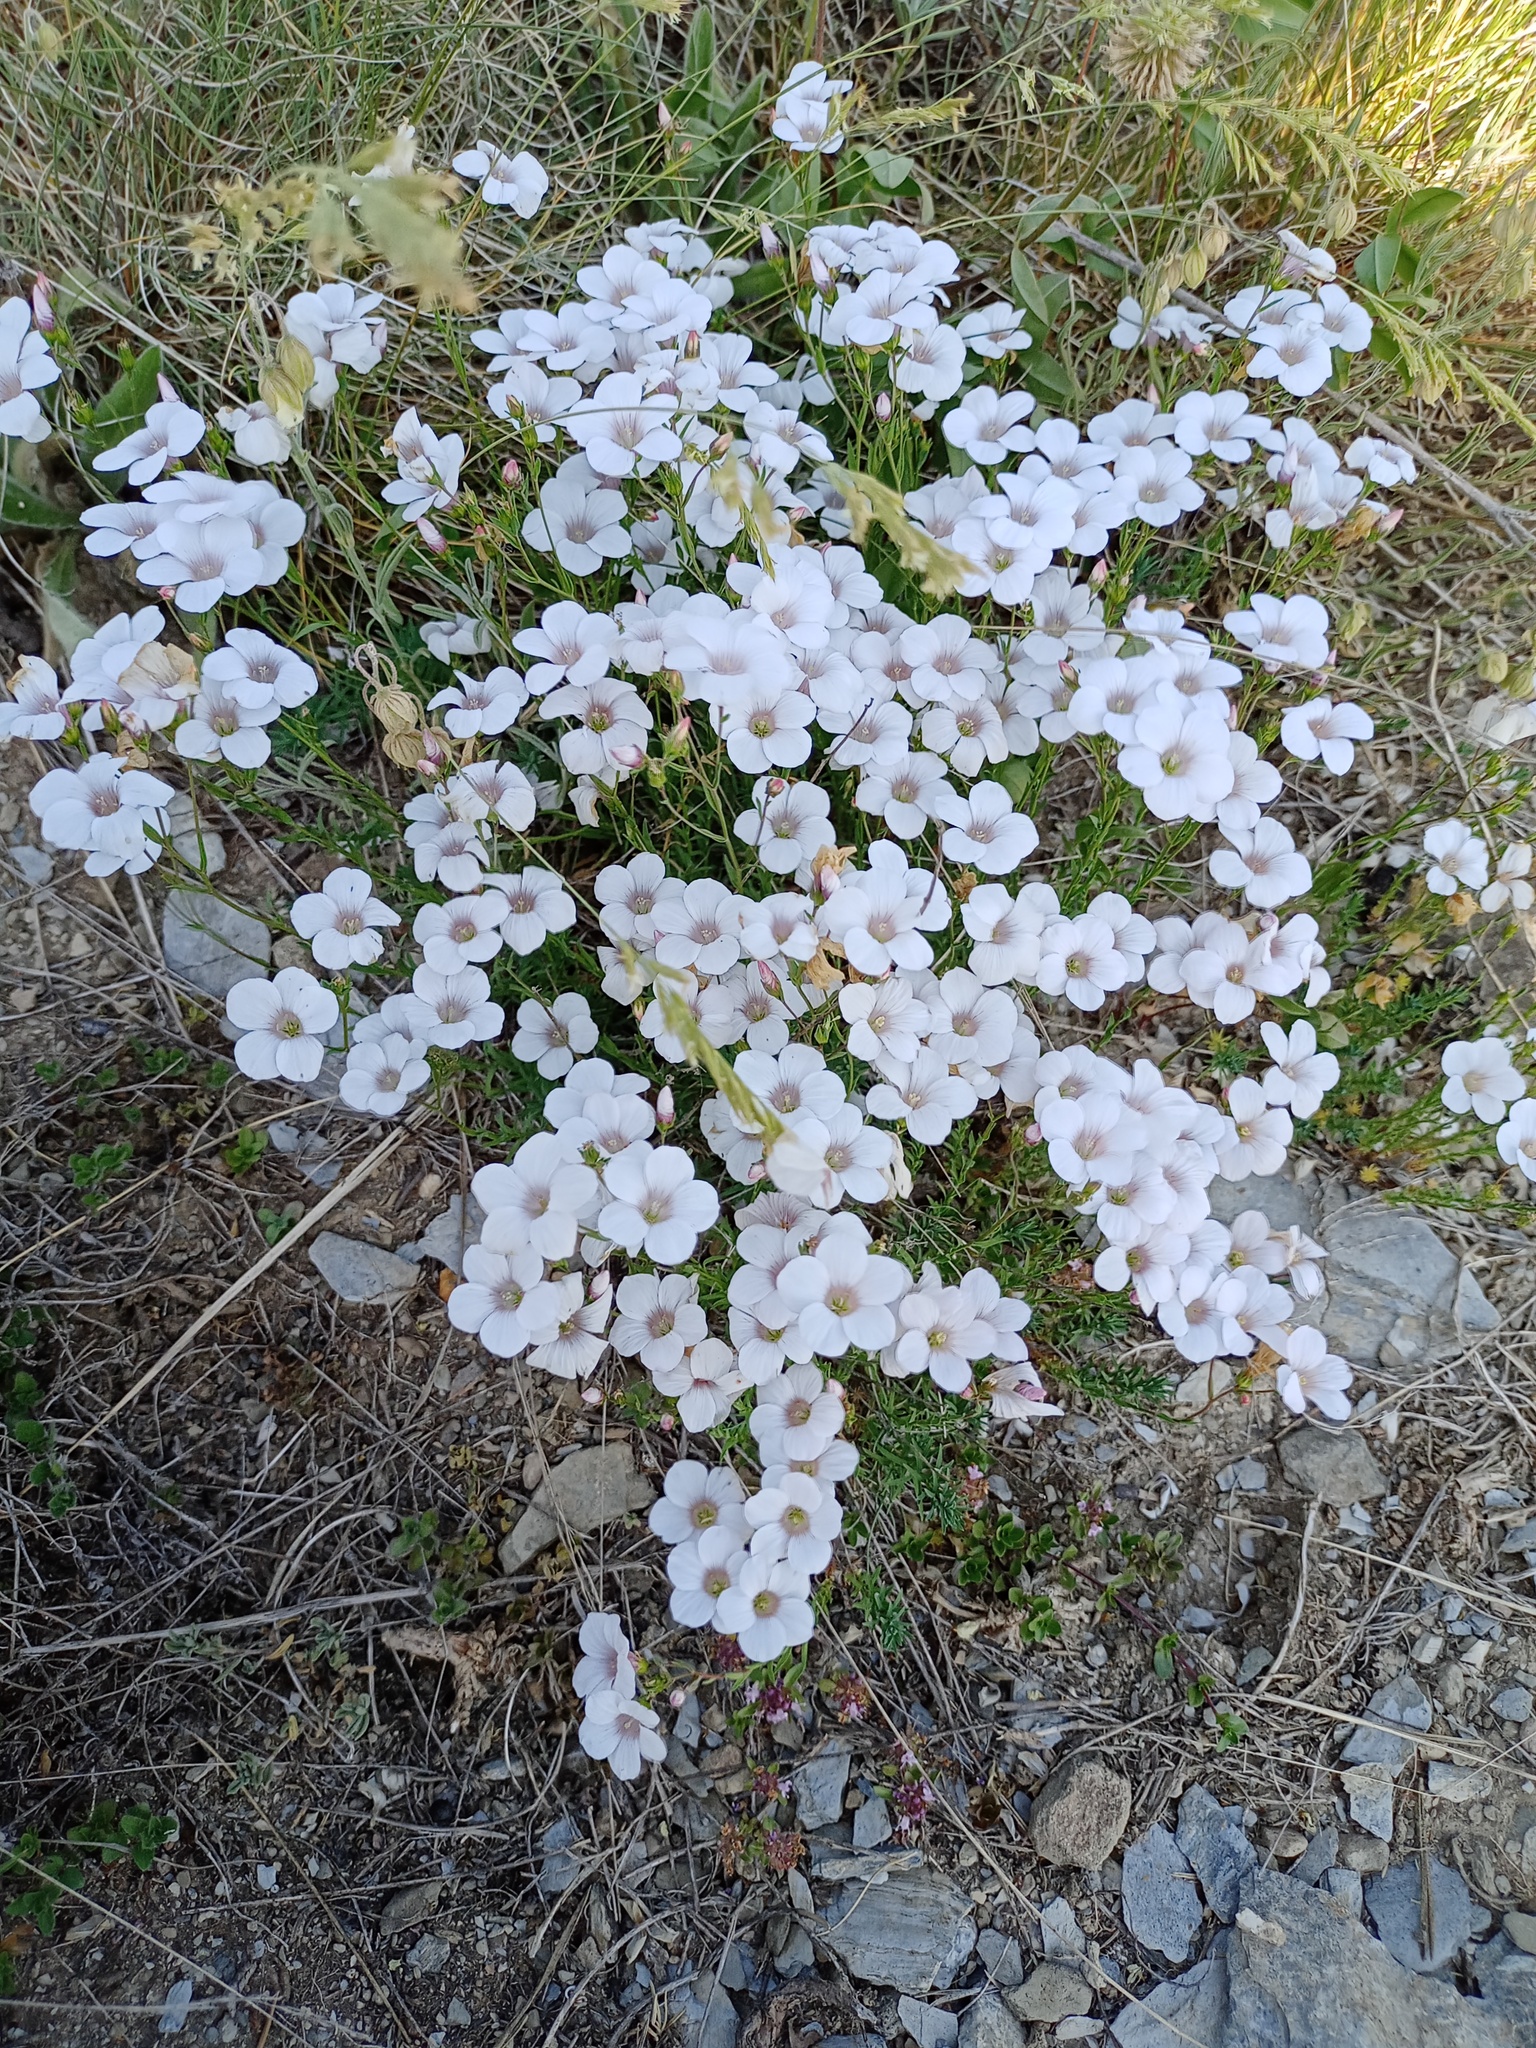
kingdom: Plantae
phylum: Tracheophyta
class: Magnoliopsida
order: Malpighiales
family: Linaceae
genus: Linum
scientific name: Linum suffruticosum
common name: White flax
